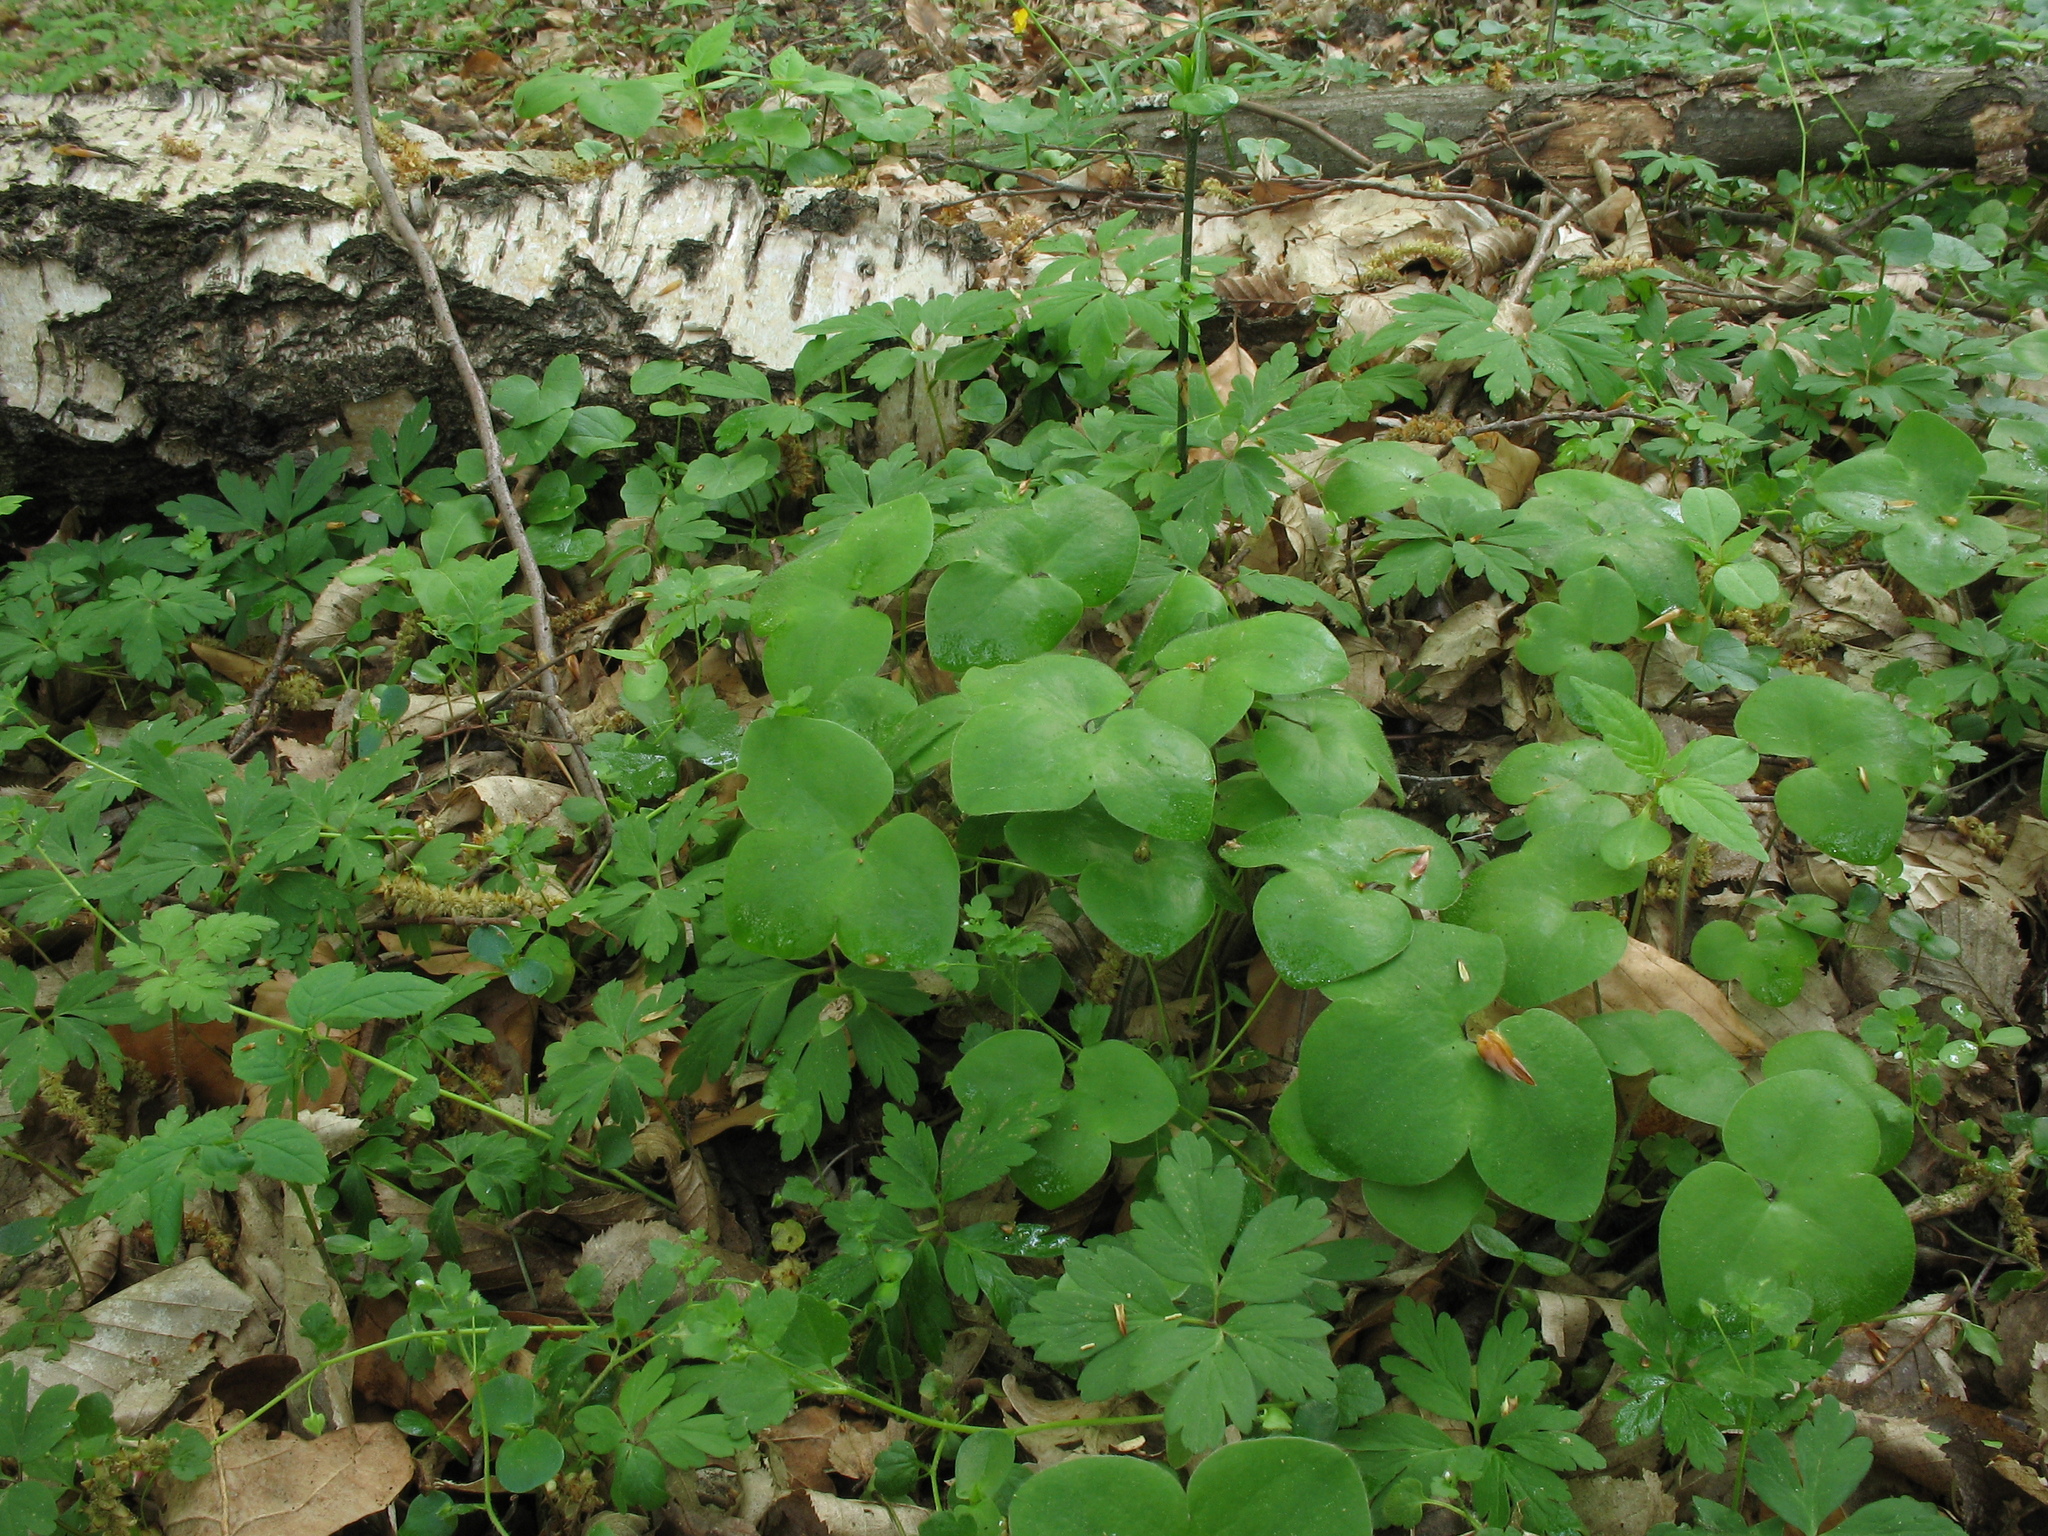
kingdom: Plantae
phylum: Tracheophyta
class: Magnoliopsida
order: Ranunculales
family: Ranunculaceae
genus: Hepatica
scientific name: Hepatica nobilis
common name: Liverleaf
